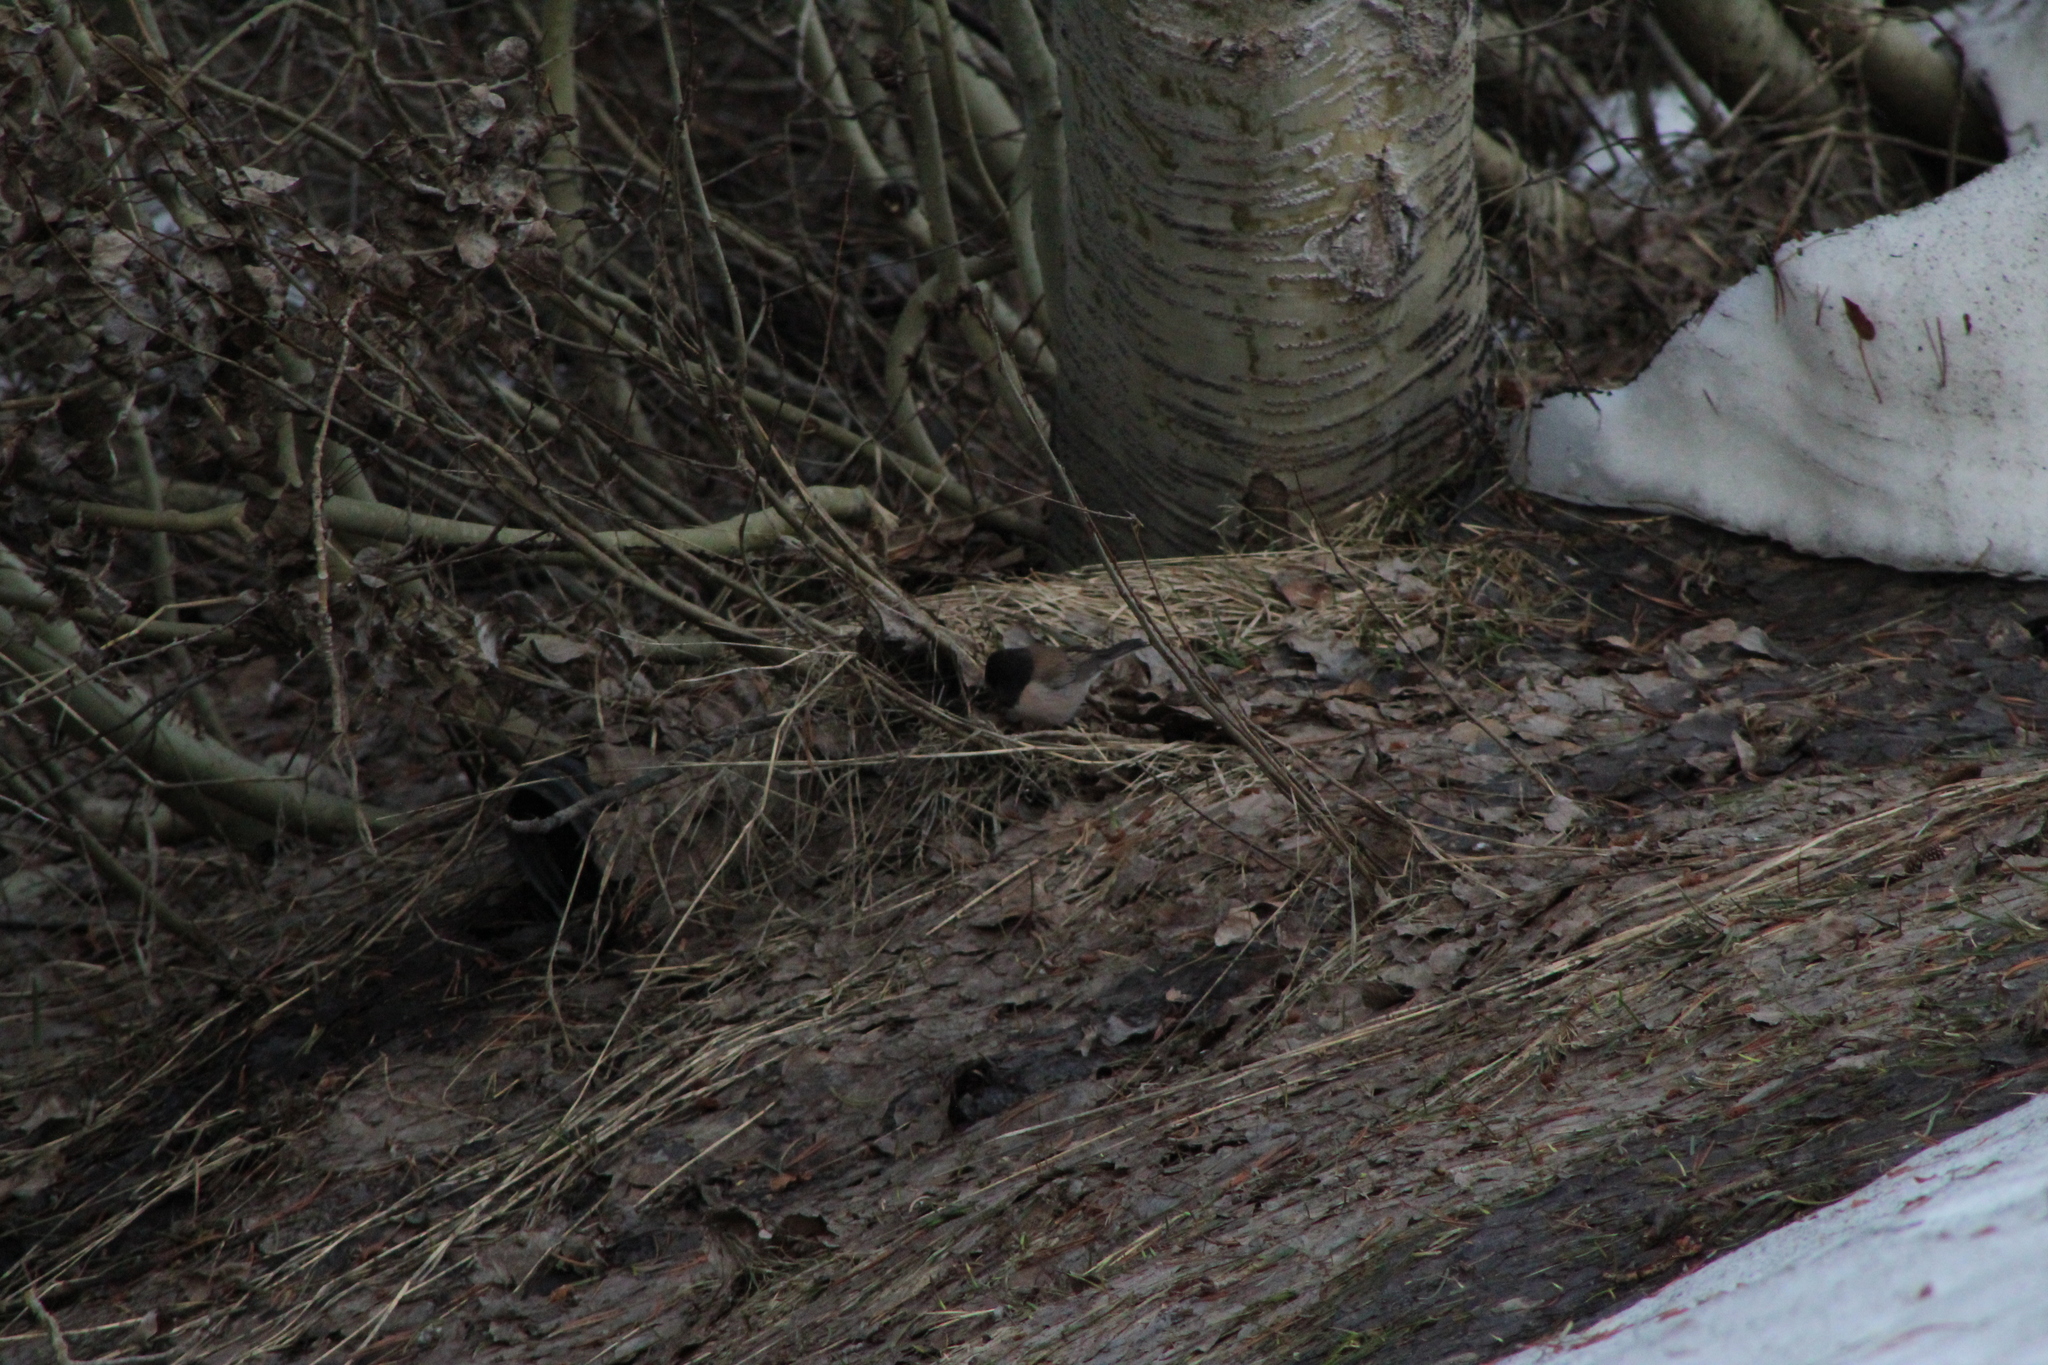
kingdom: Animalia
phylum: Chordata
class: Aves
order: Passeriformes
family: Passerellidae
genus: Junco
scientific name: Junco hyemalis
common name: Dark-eyed junco
